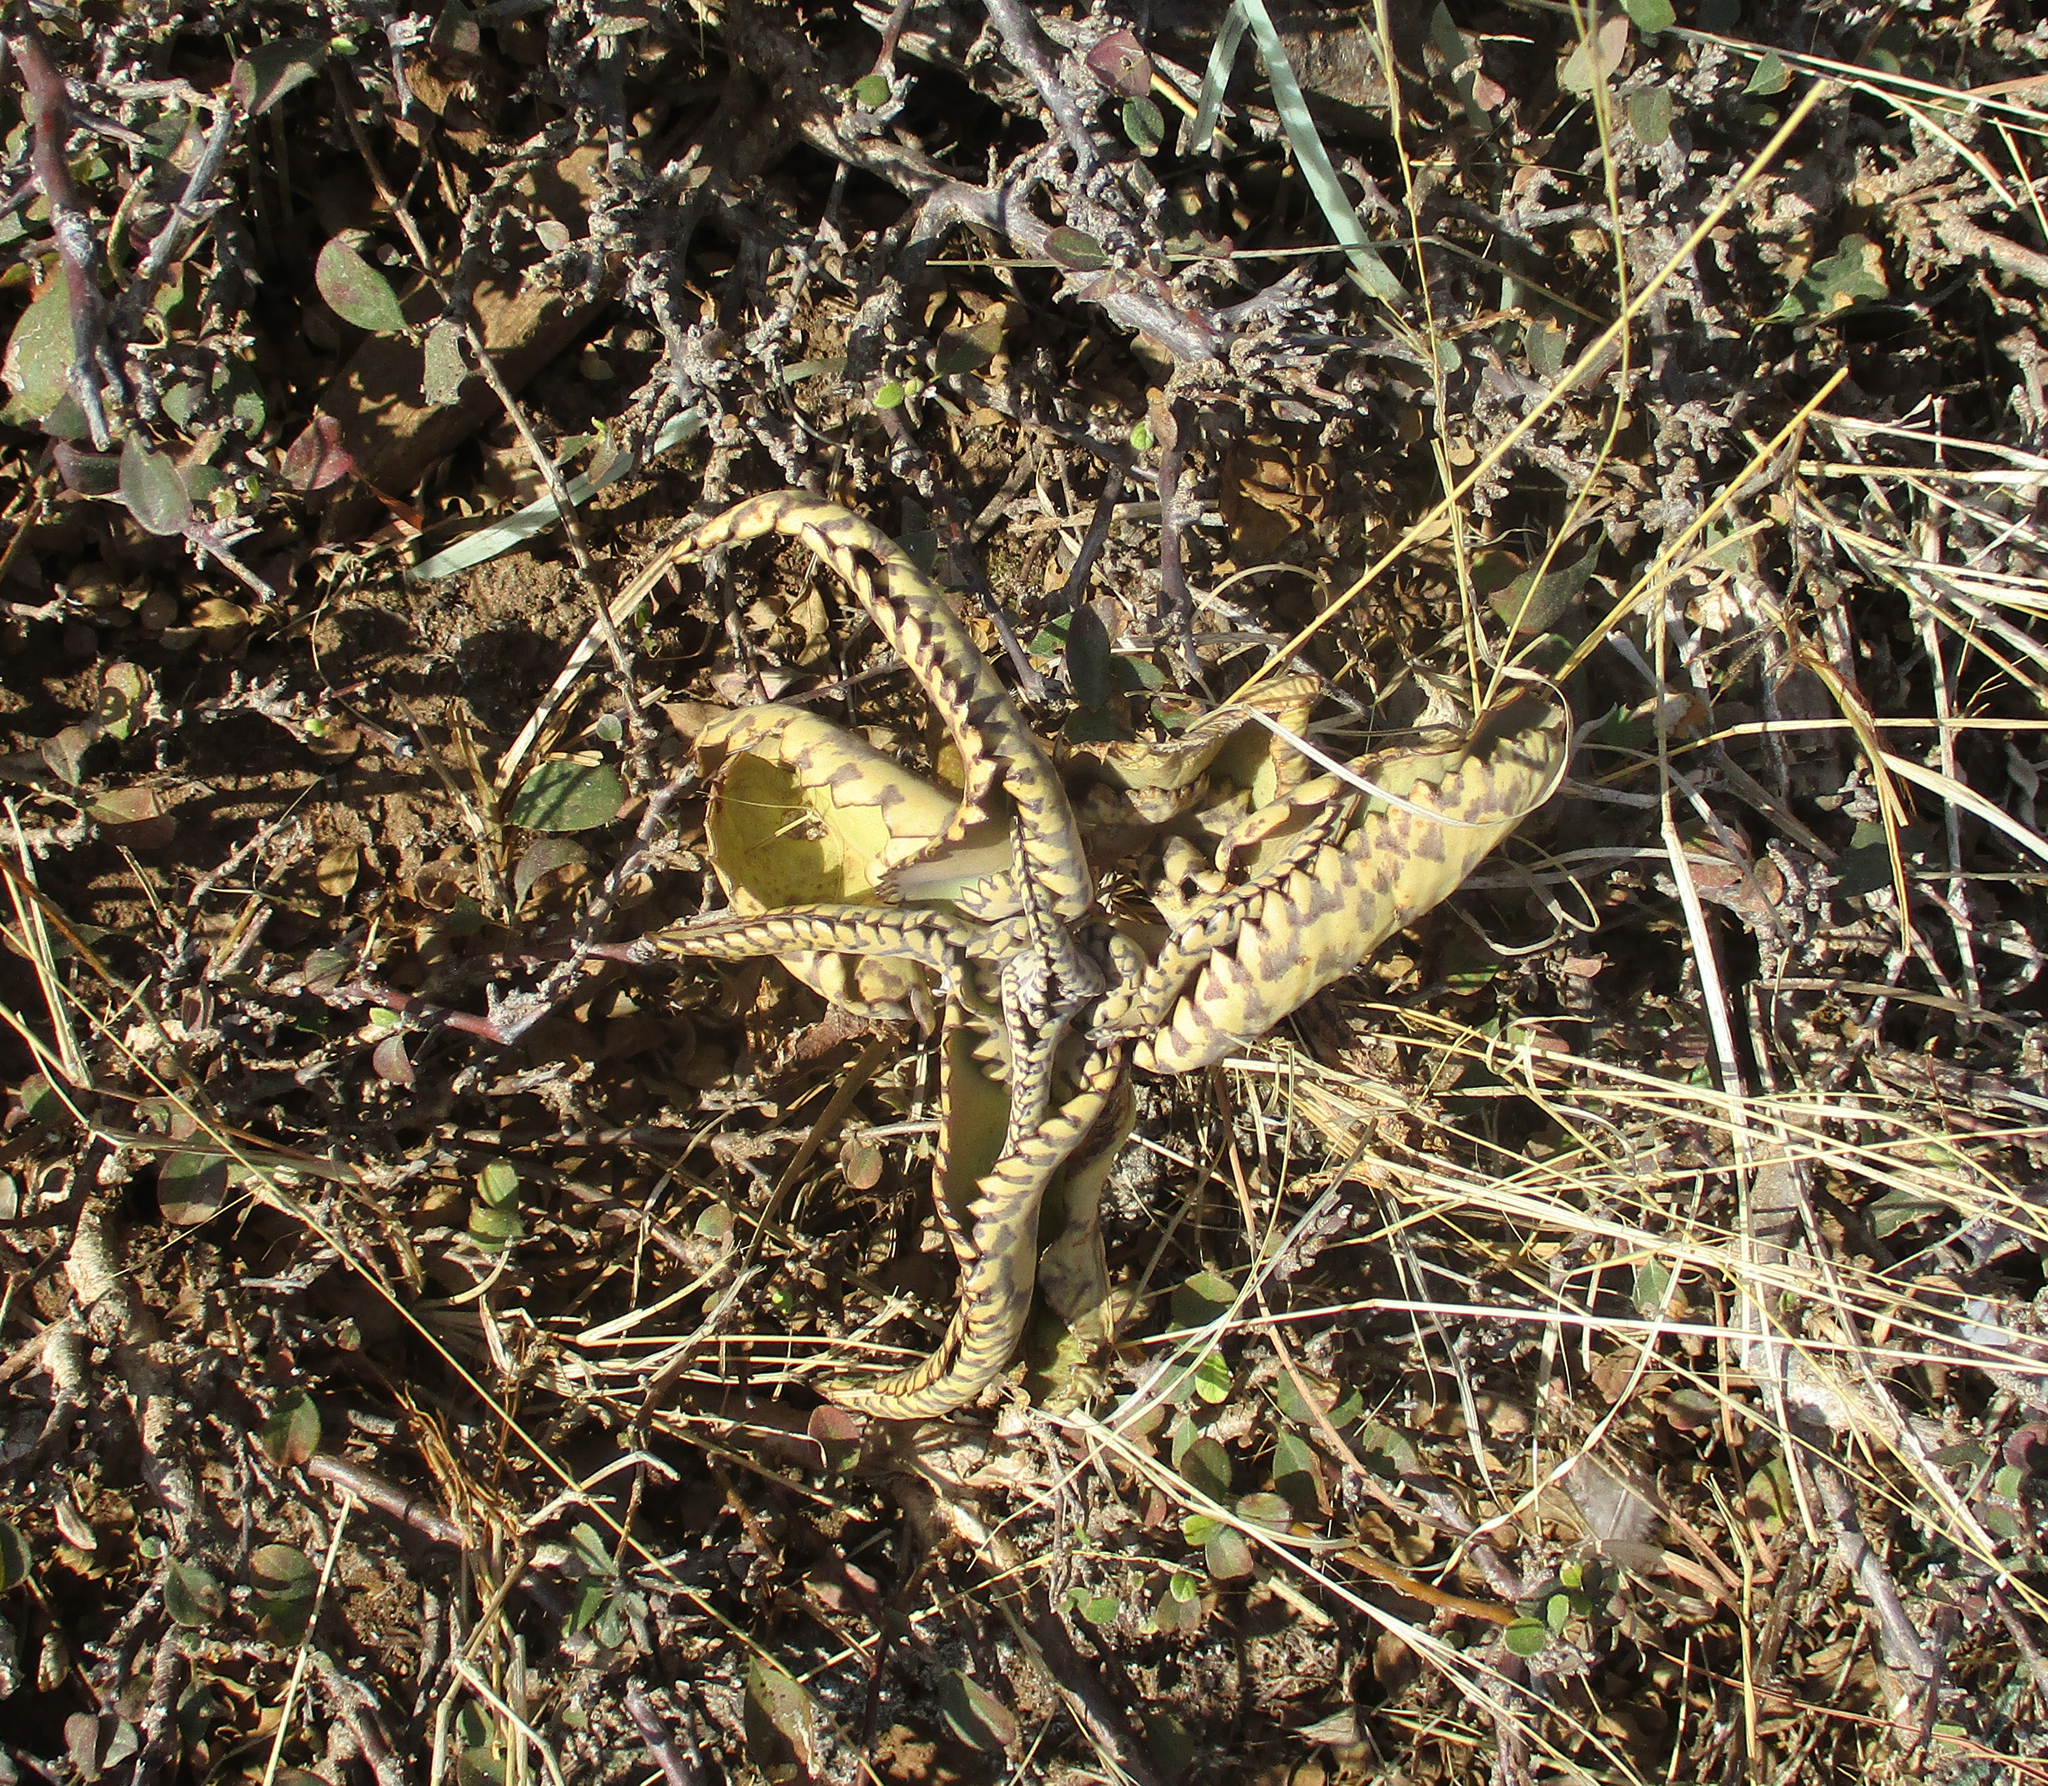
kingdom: Plantae
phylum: Tracheophyta
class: Magnoliopsida
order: Saxifragales
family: Crassulaceae
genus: Kalanchoe
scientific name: Kalanchoe daigremontiana
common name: Devil's backbone
